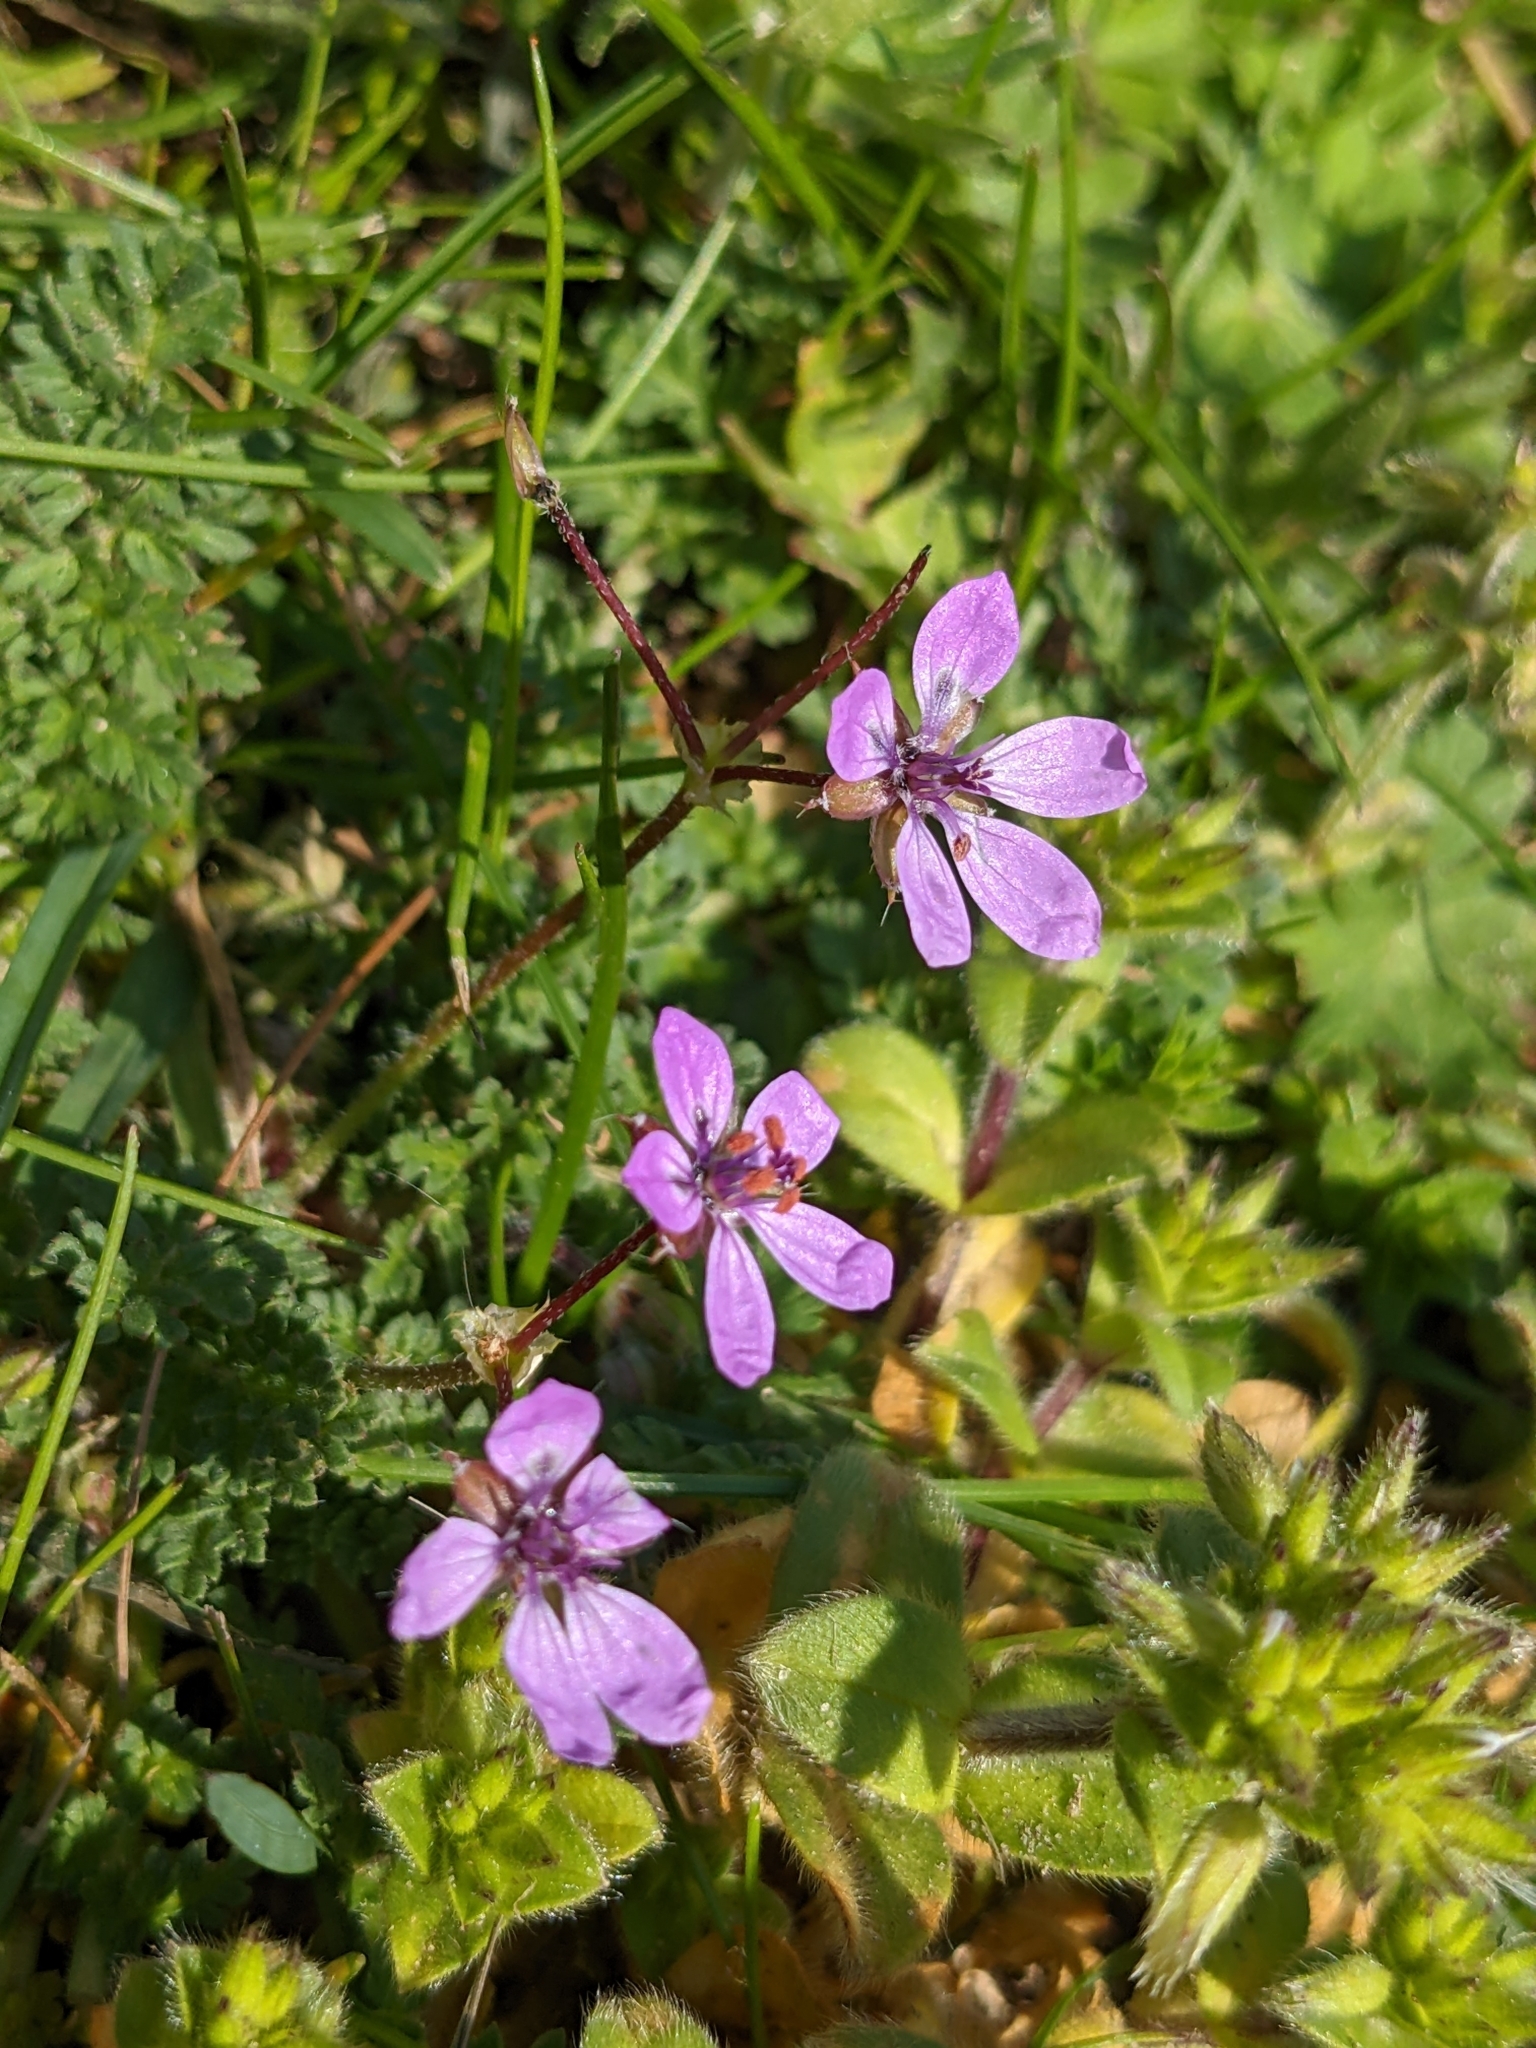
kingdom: Plantae
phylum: Tracheophyta
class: Magnoliopsida
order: Geraniales
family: Geraniaceae
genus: Erodium
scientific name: Erodium cicutarium
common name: Common stork's-bill
